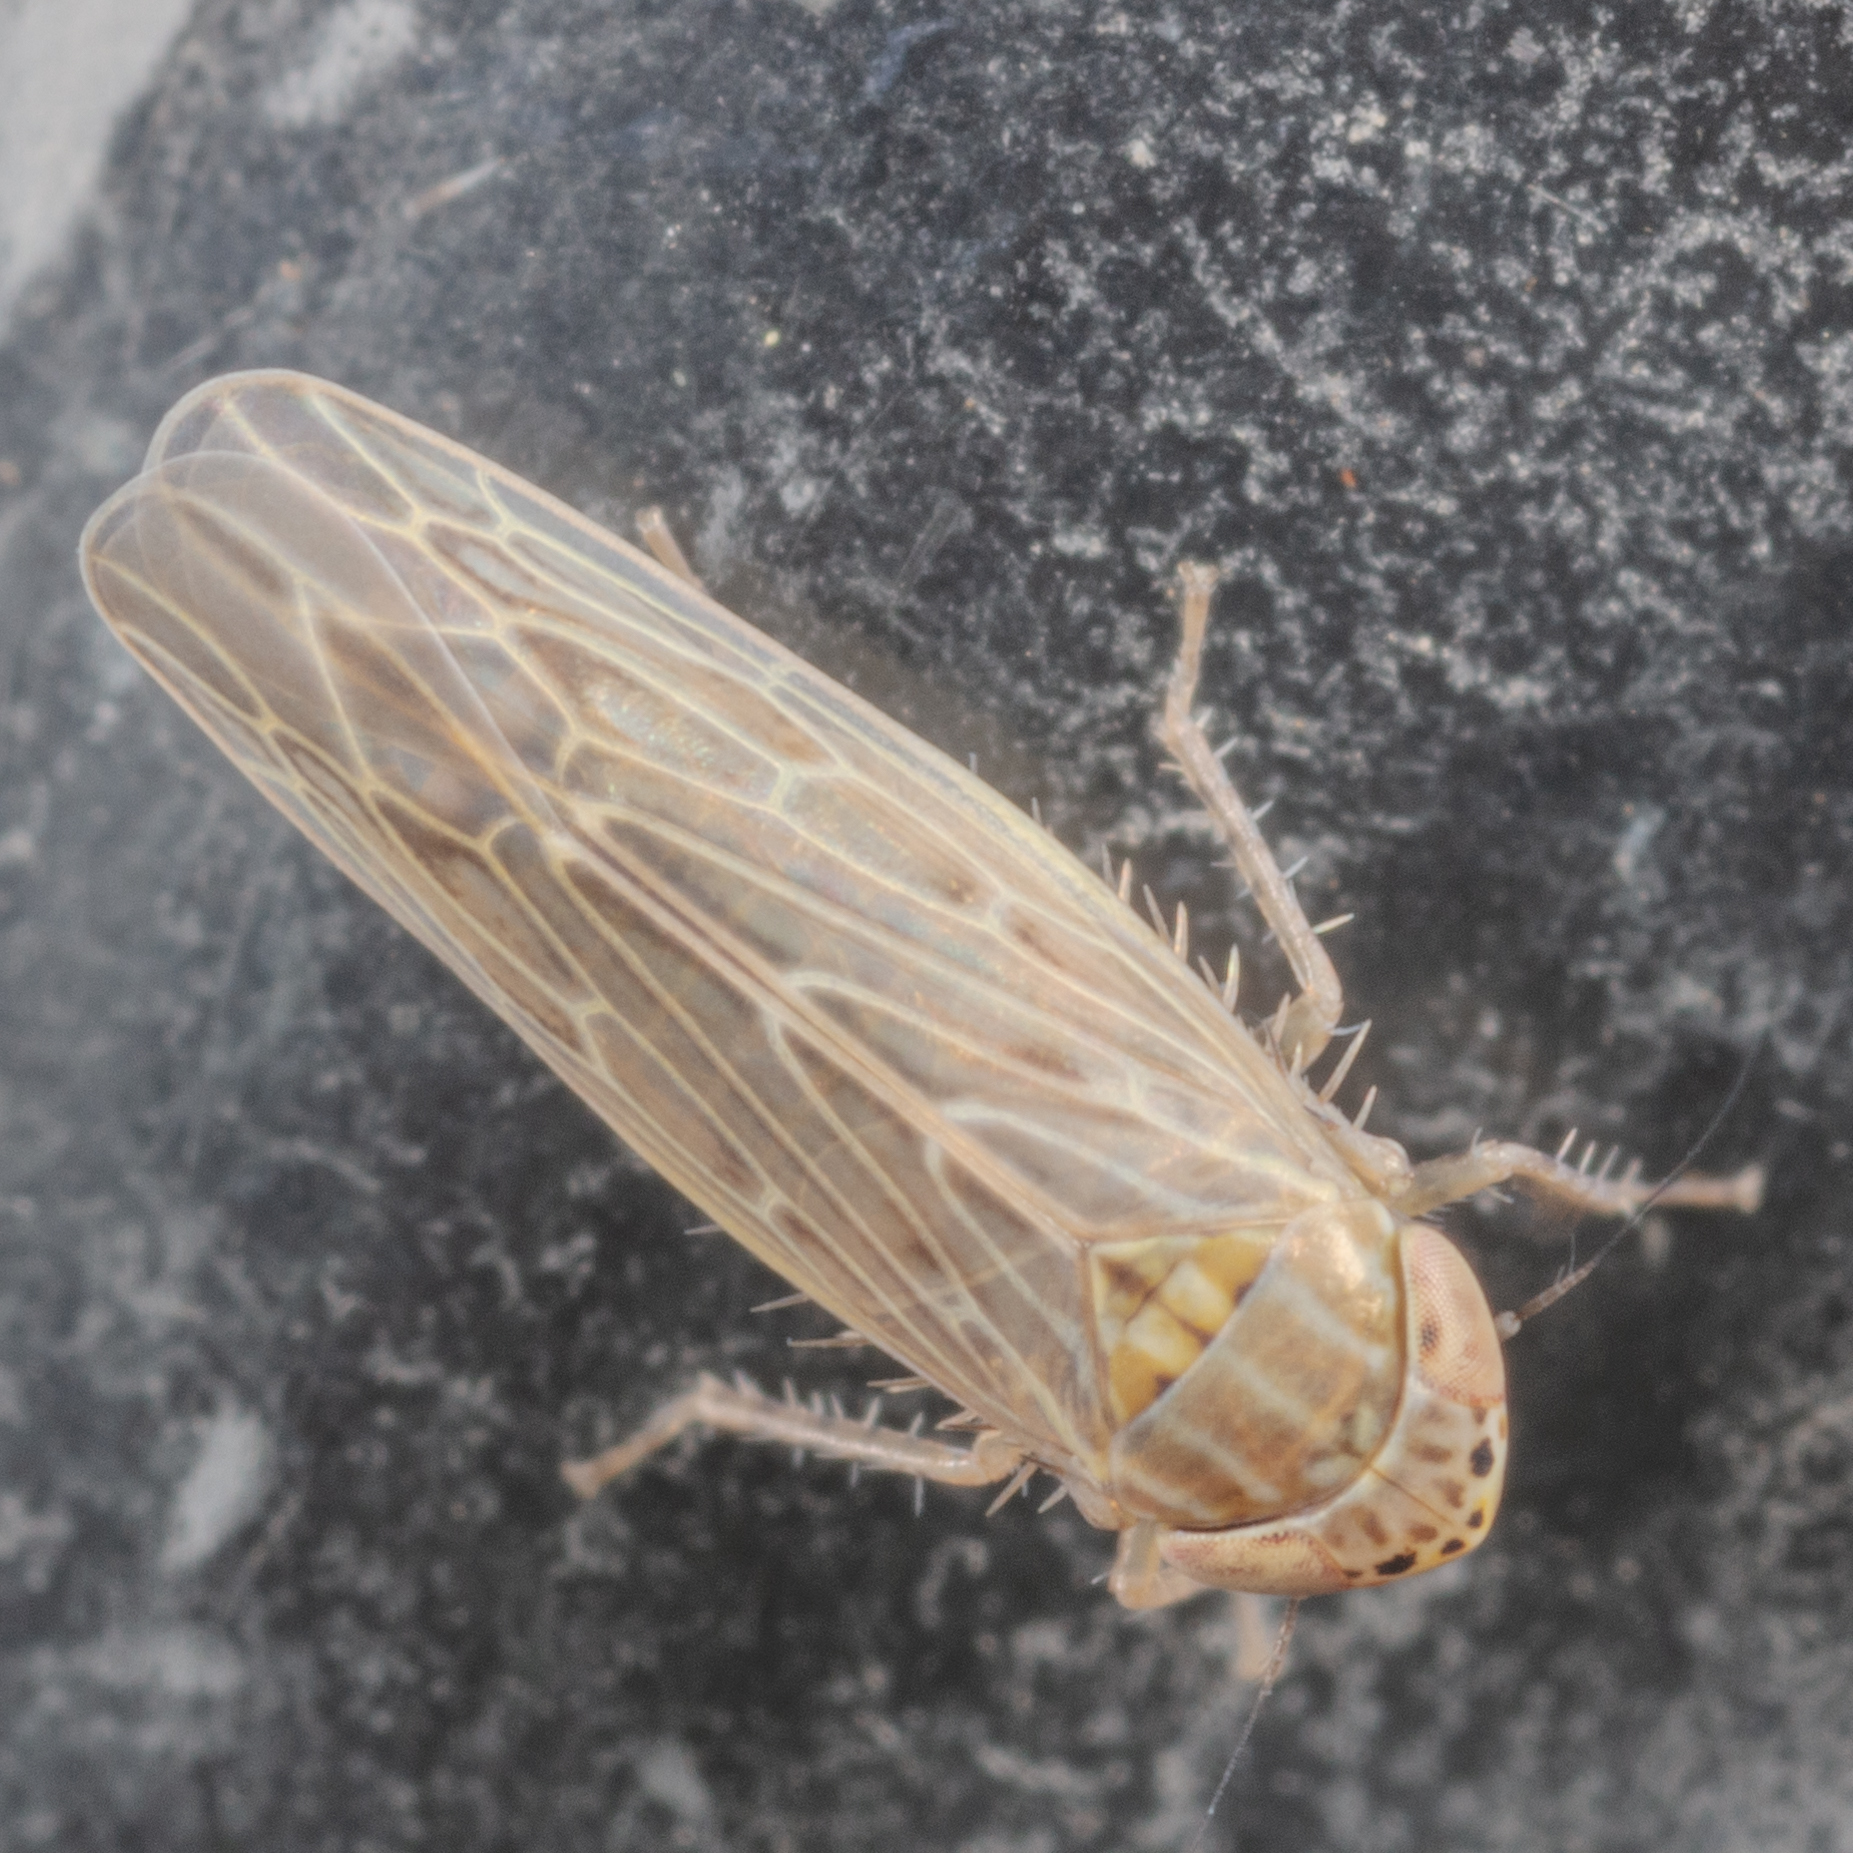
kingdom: Animalia
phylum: Arthropoda
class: Insecta
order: Hemiptera
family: Cicadellidae
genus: Graminella
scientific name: Graminella sonora
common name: Lesser lawn leafhopper
